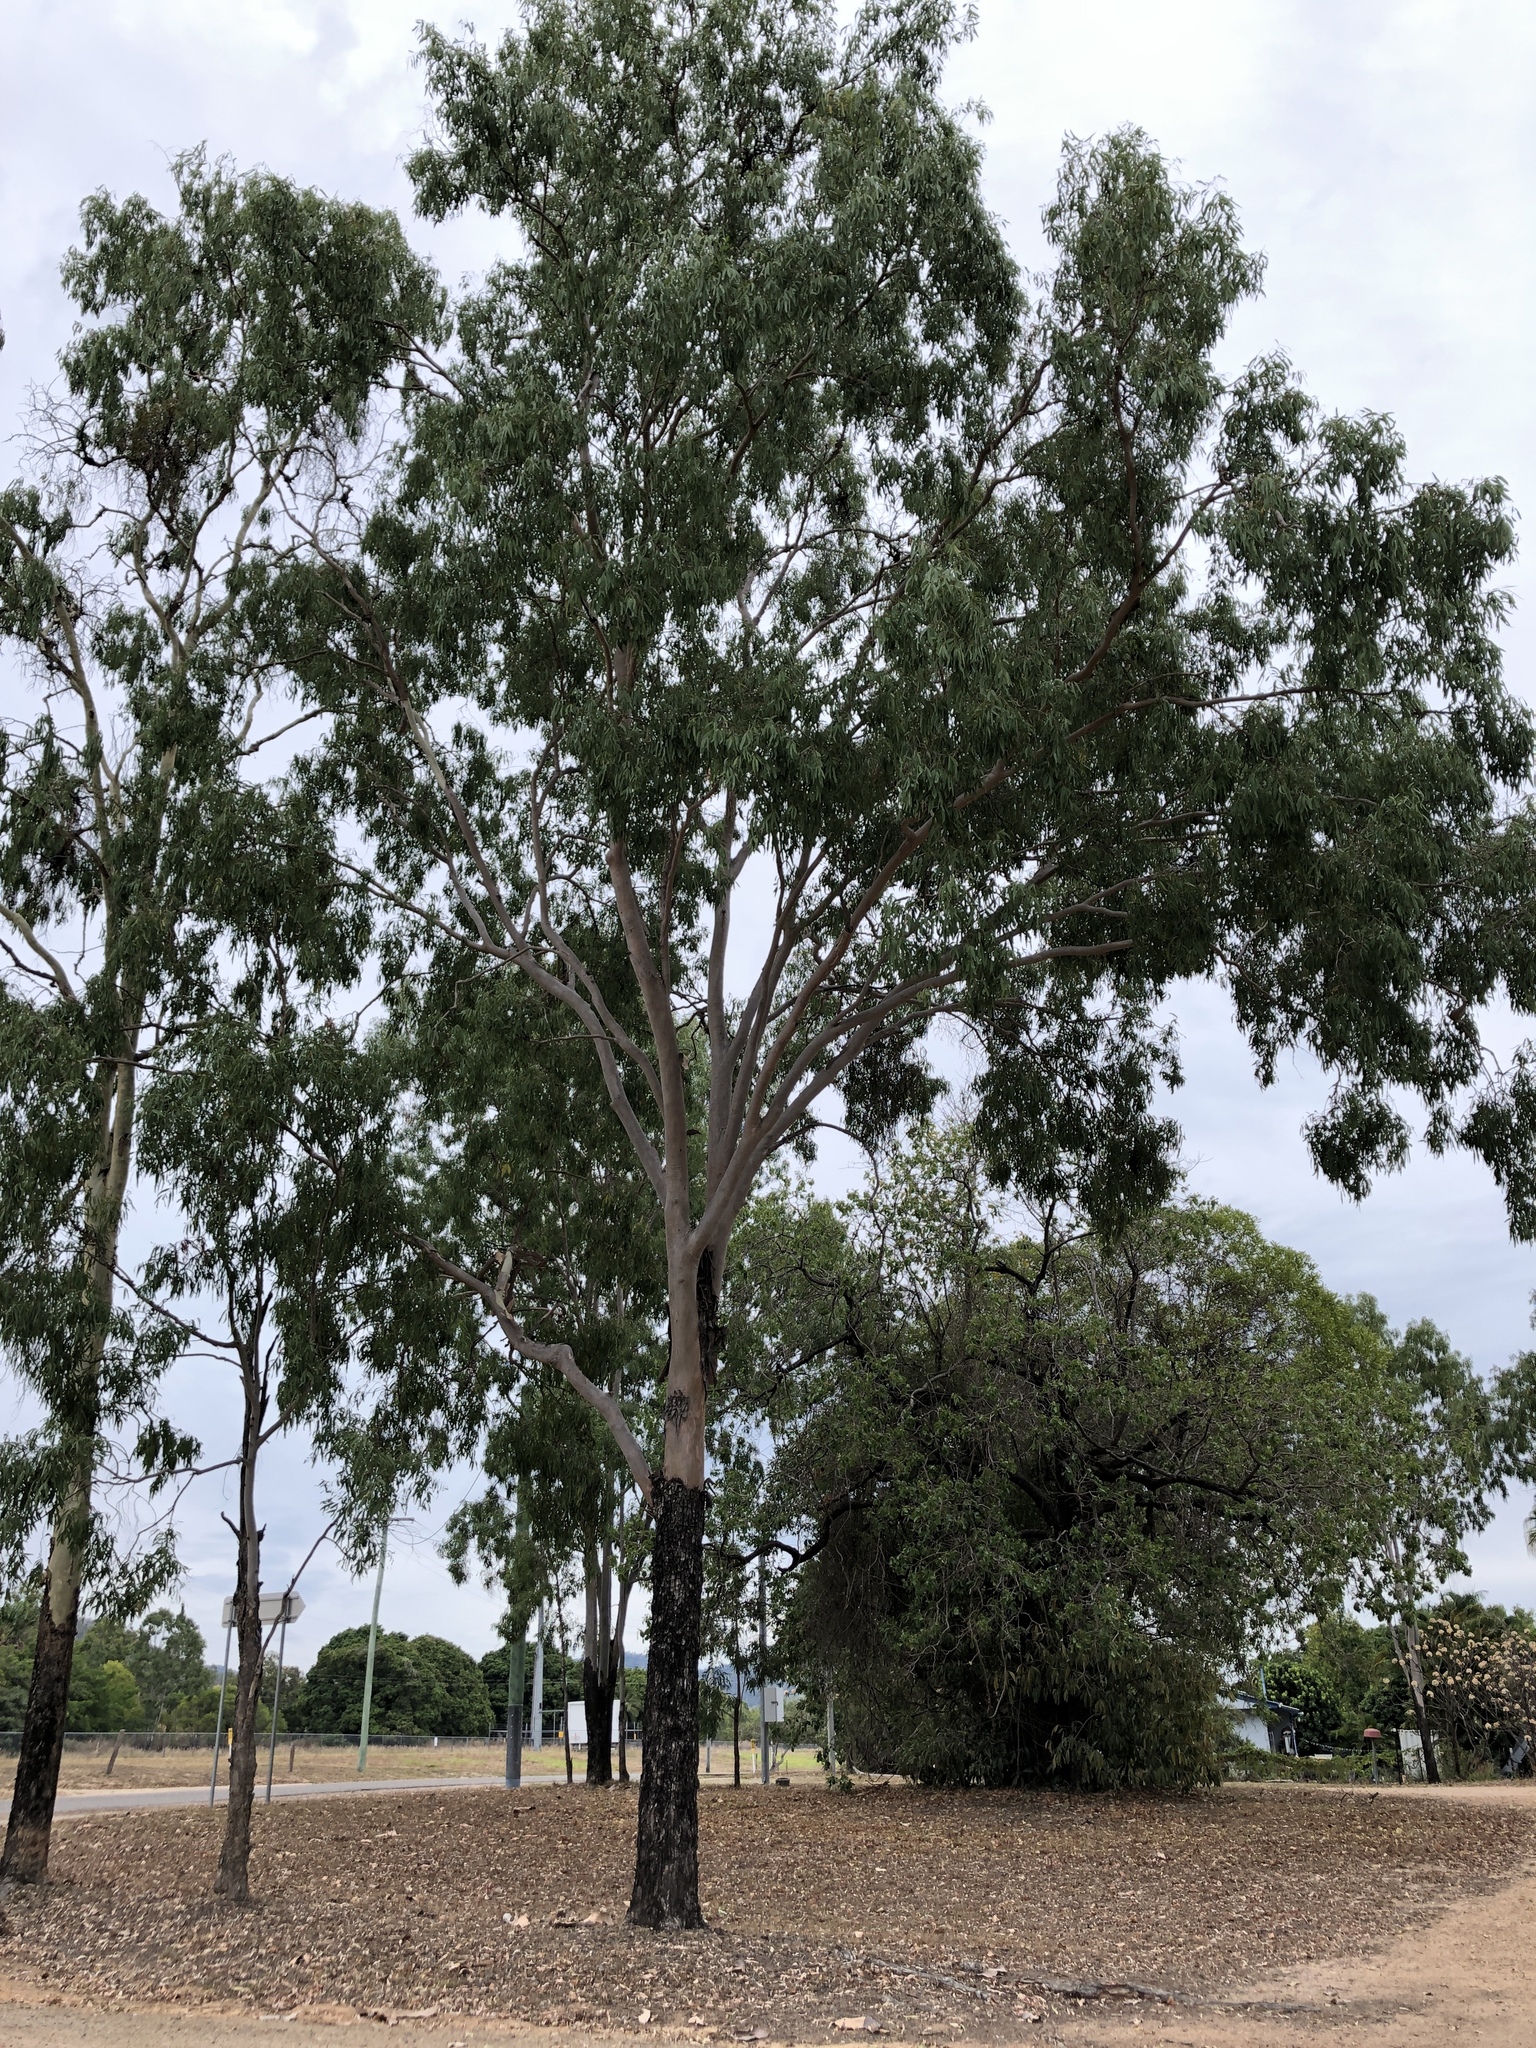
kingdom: Plantae
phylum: Tracheophyta
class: Magnoliopsida
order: Myrtales
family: Myrtaceae
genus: Corymbia
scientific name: Corymbia tessellaris
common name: Carbeen
